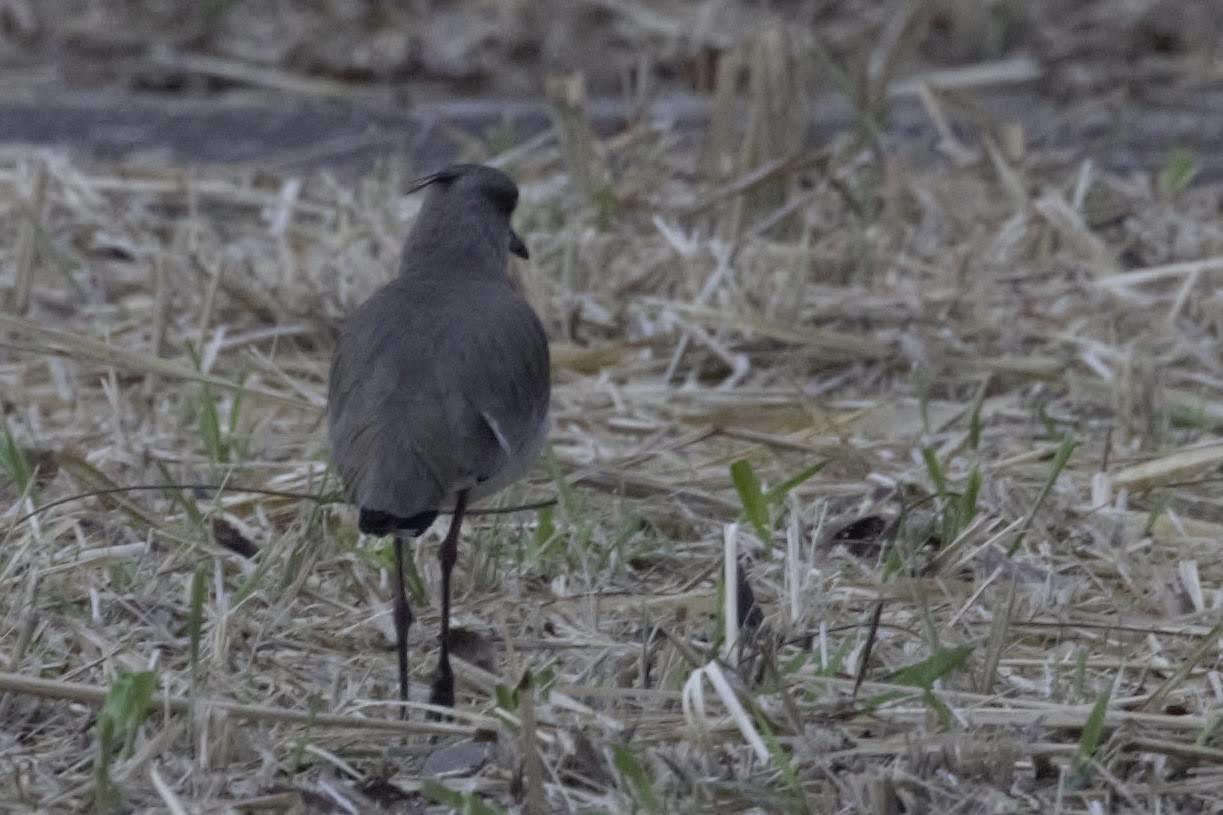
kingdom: Animalia
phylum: Chordata
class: Aves
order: Charadriiformes
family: Charadriidae
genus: Vanellus
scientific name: Vanellus chilensis
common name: Southern lapwing
